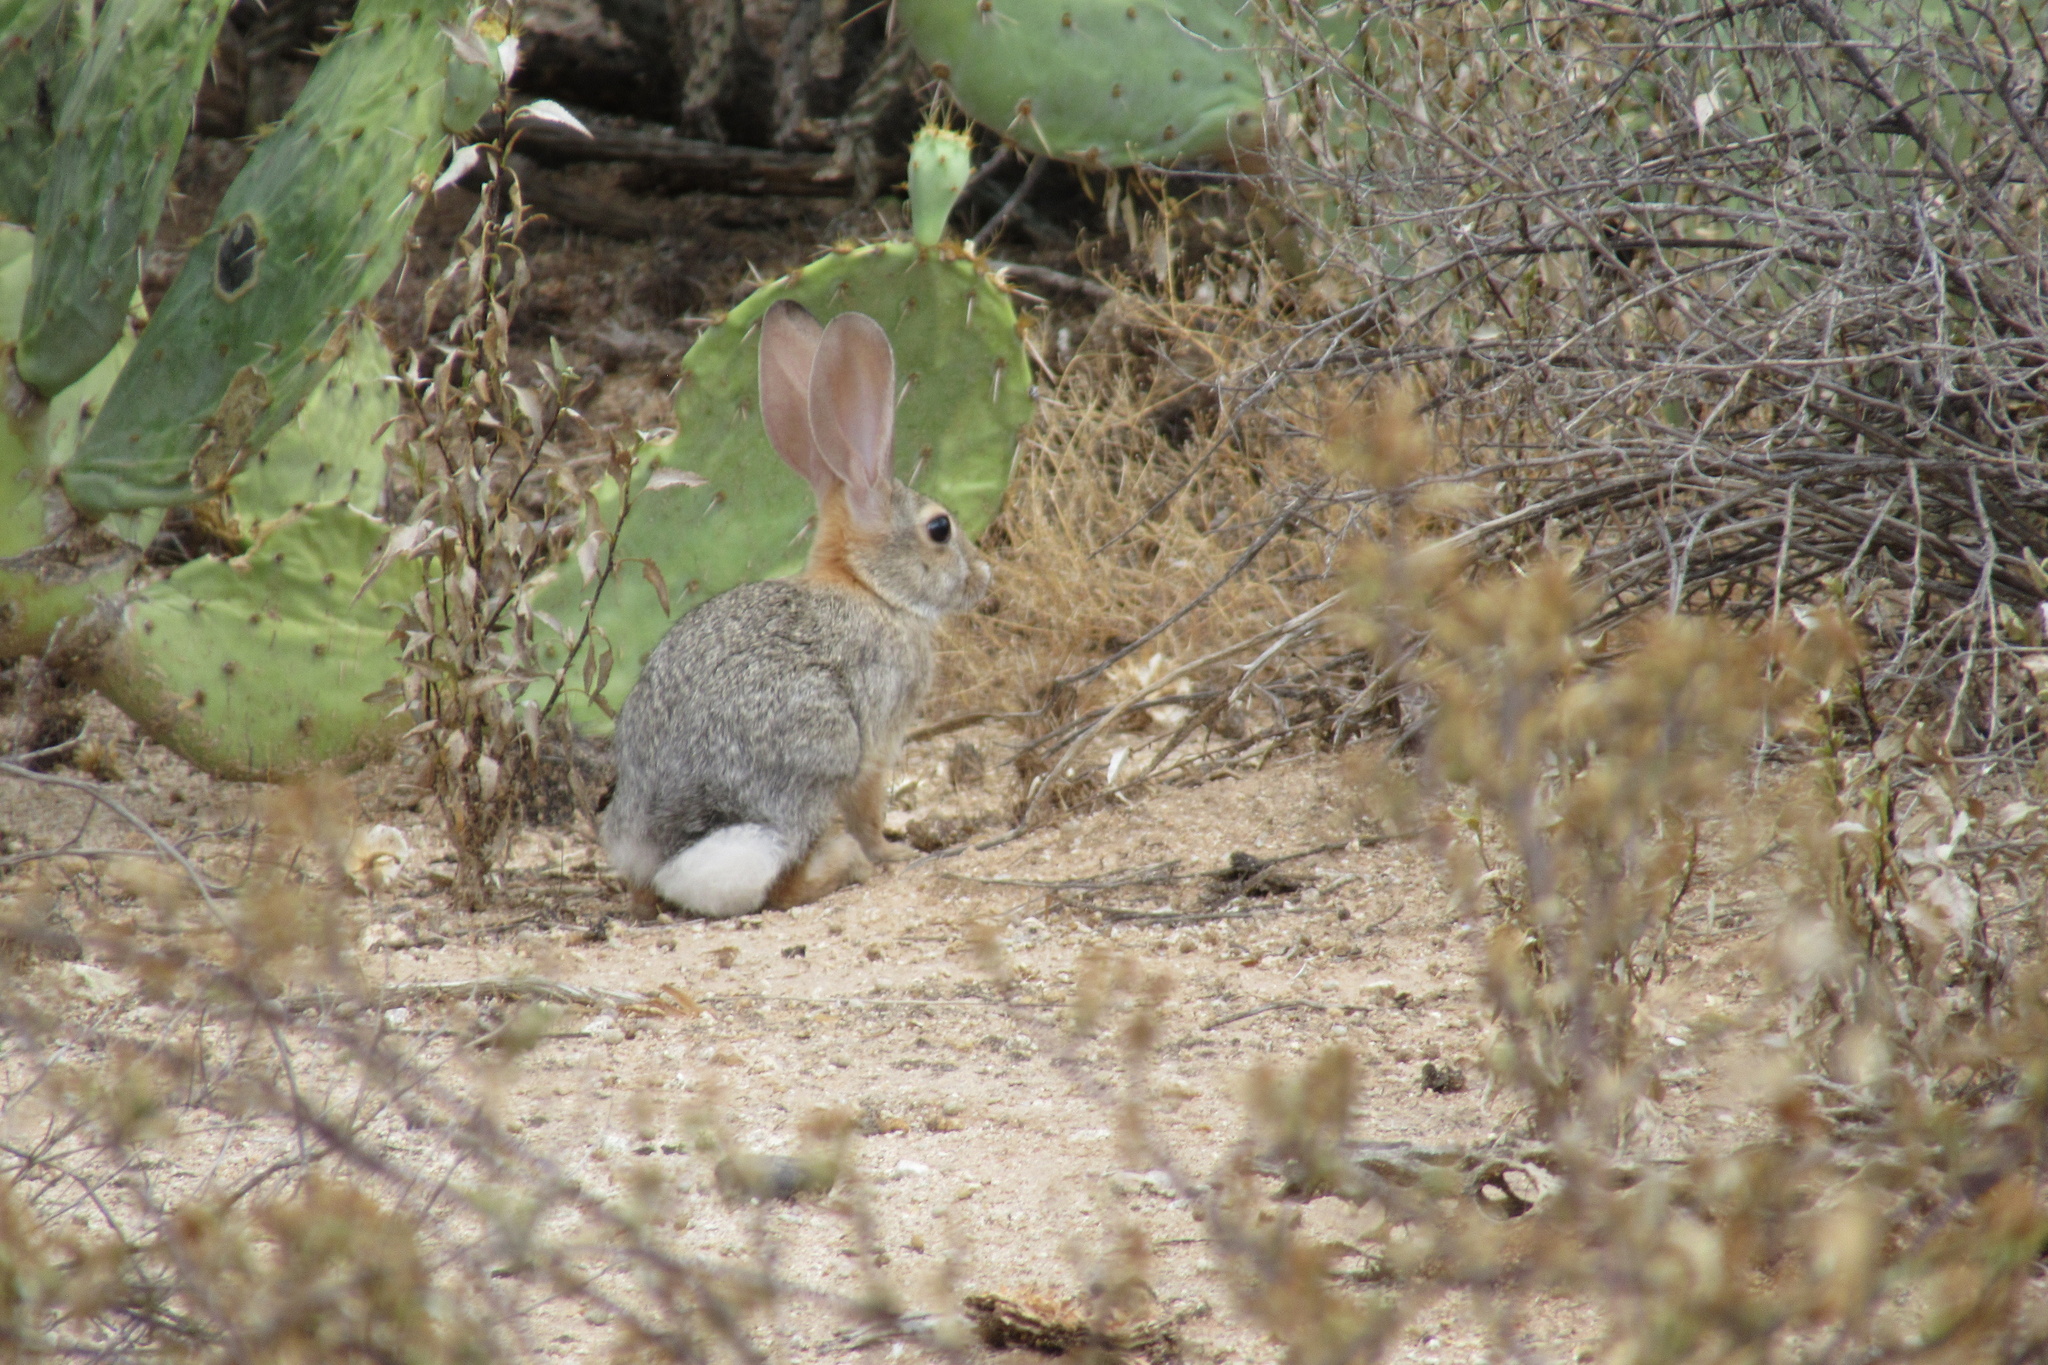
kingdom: Animalia
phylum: Chordata
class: Mammalia
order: Lagomorpha
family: Leporidae
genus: Sylvilagus
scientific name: Sylvilagus audubonii
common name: Desert cottontail
